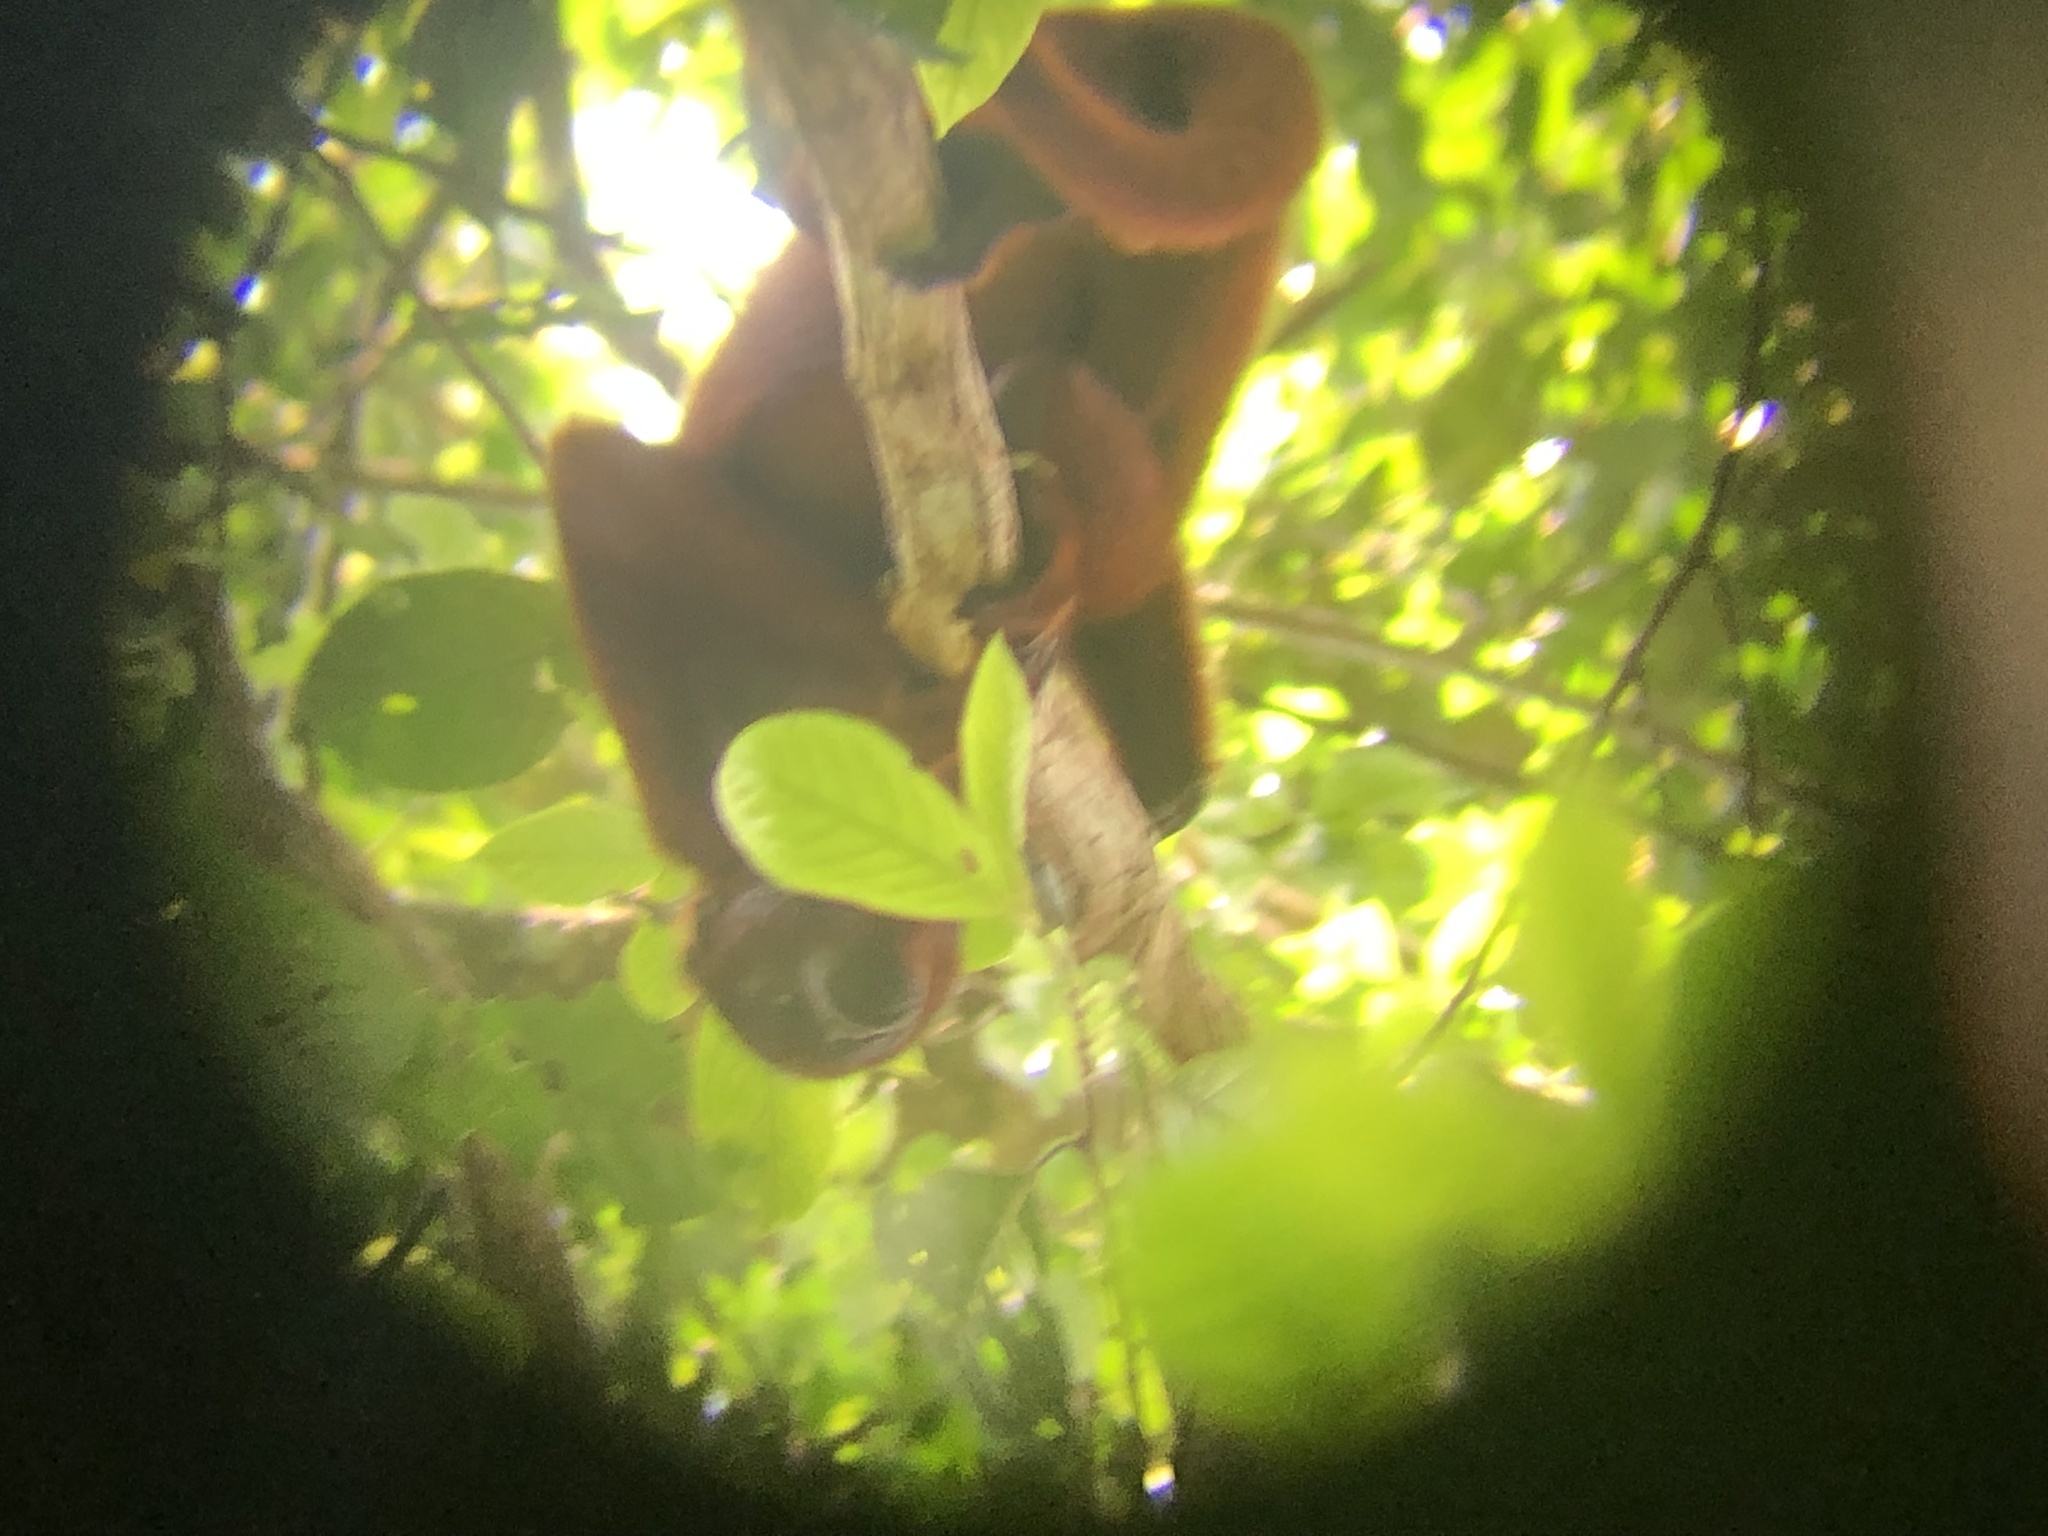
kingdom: Animalia
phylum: Chordata
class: Mammalia
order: Primates
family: Atelidae
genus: Alouatta
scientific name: Alouatta seniculus
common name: Venezuelan red howler
